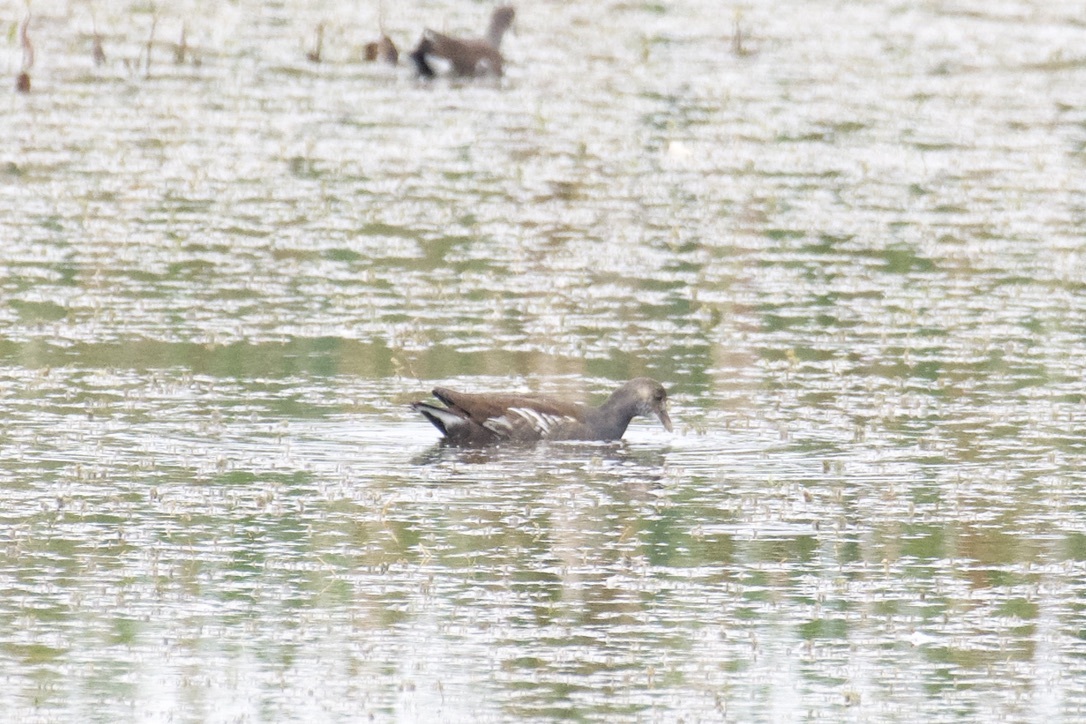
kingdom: Animalia
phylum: Chordata
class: Aves
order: Gruiformes
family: Rallidae
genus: Gallinula
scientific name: Gallinula chloropus
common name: Common moorhen
